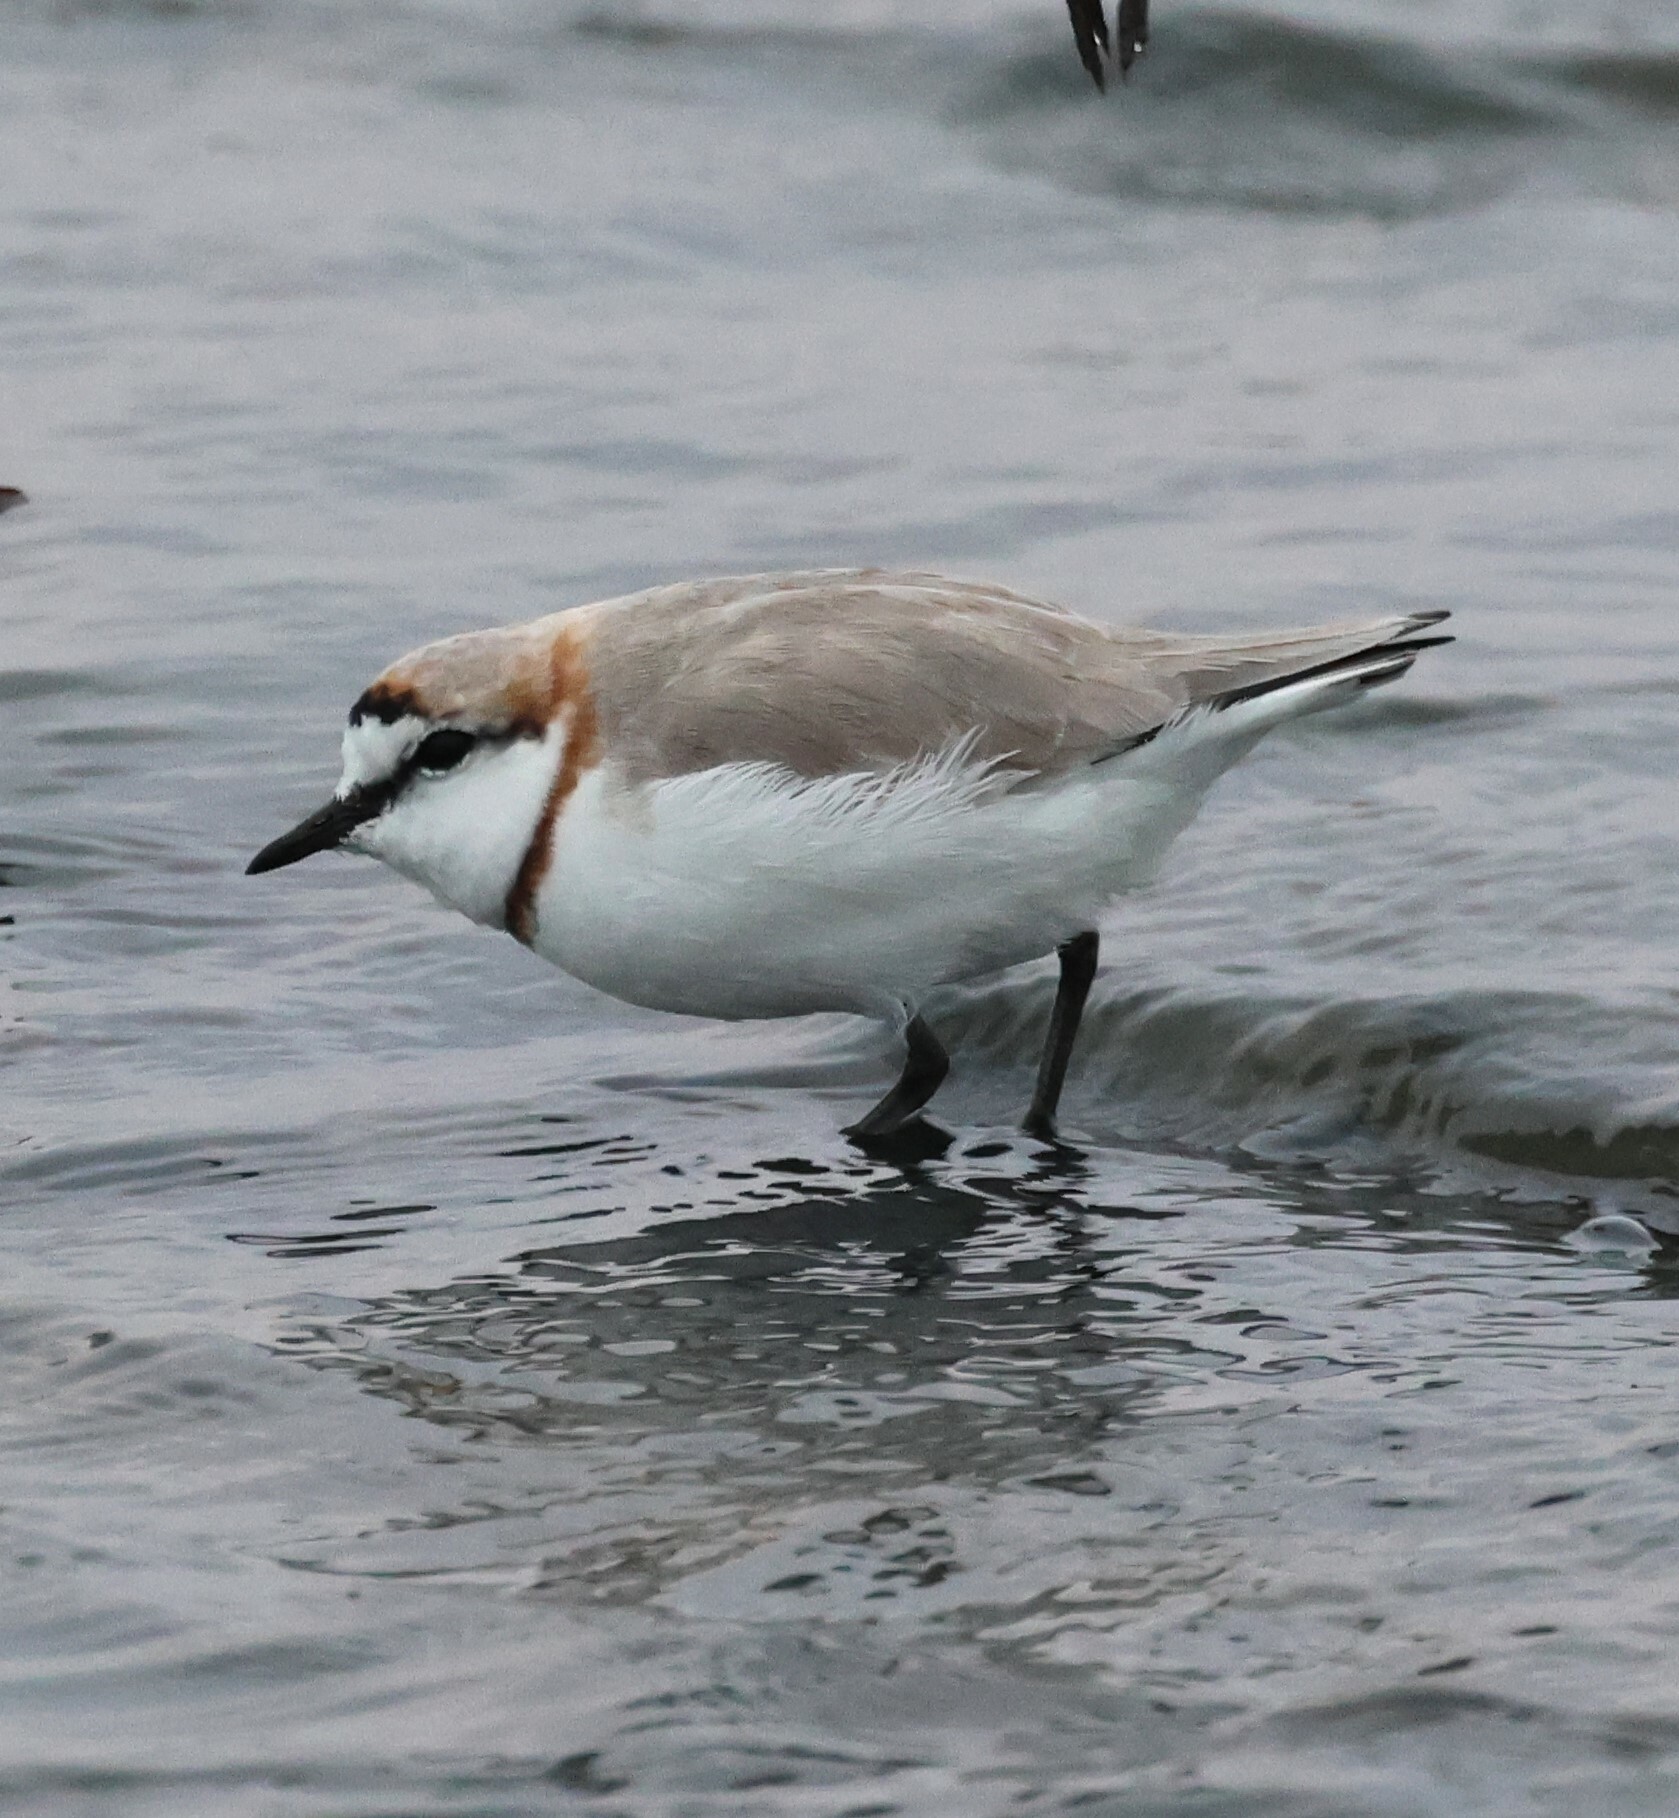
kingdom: Animalia
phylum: Chordata
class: Aves
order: Charadriiformes
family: Charadriidae
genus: Anarhynchus
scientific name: Anarhynchus
